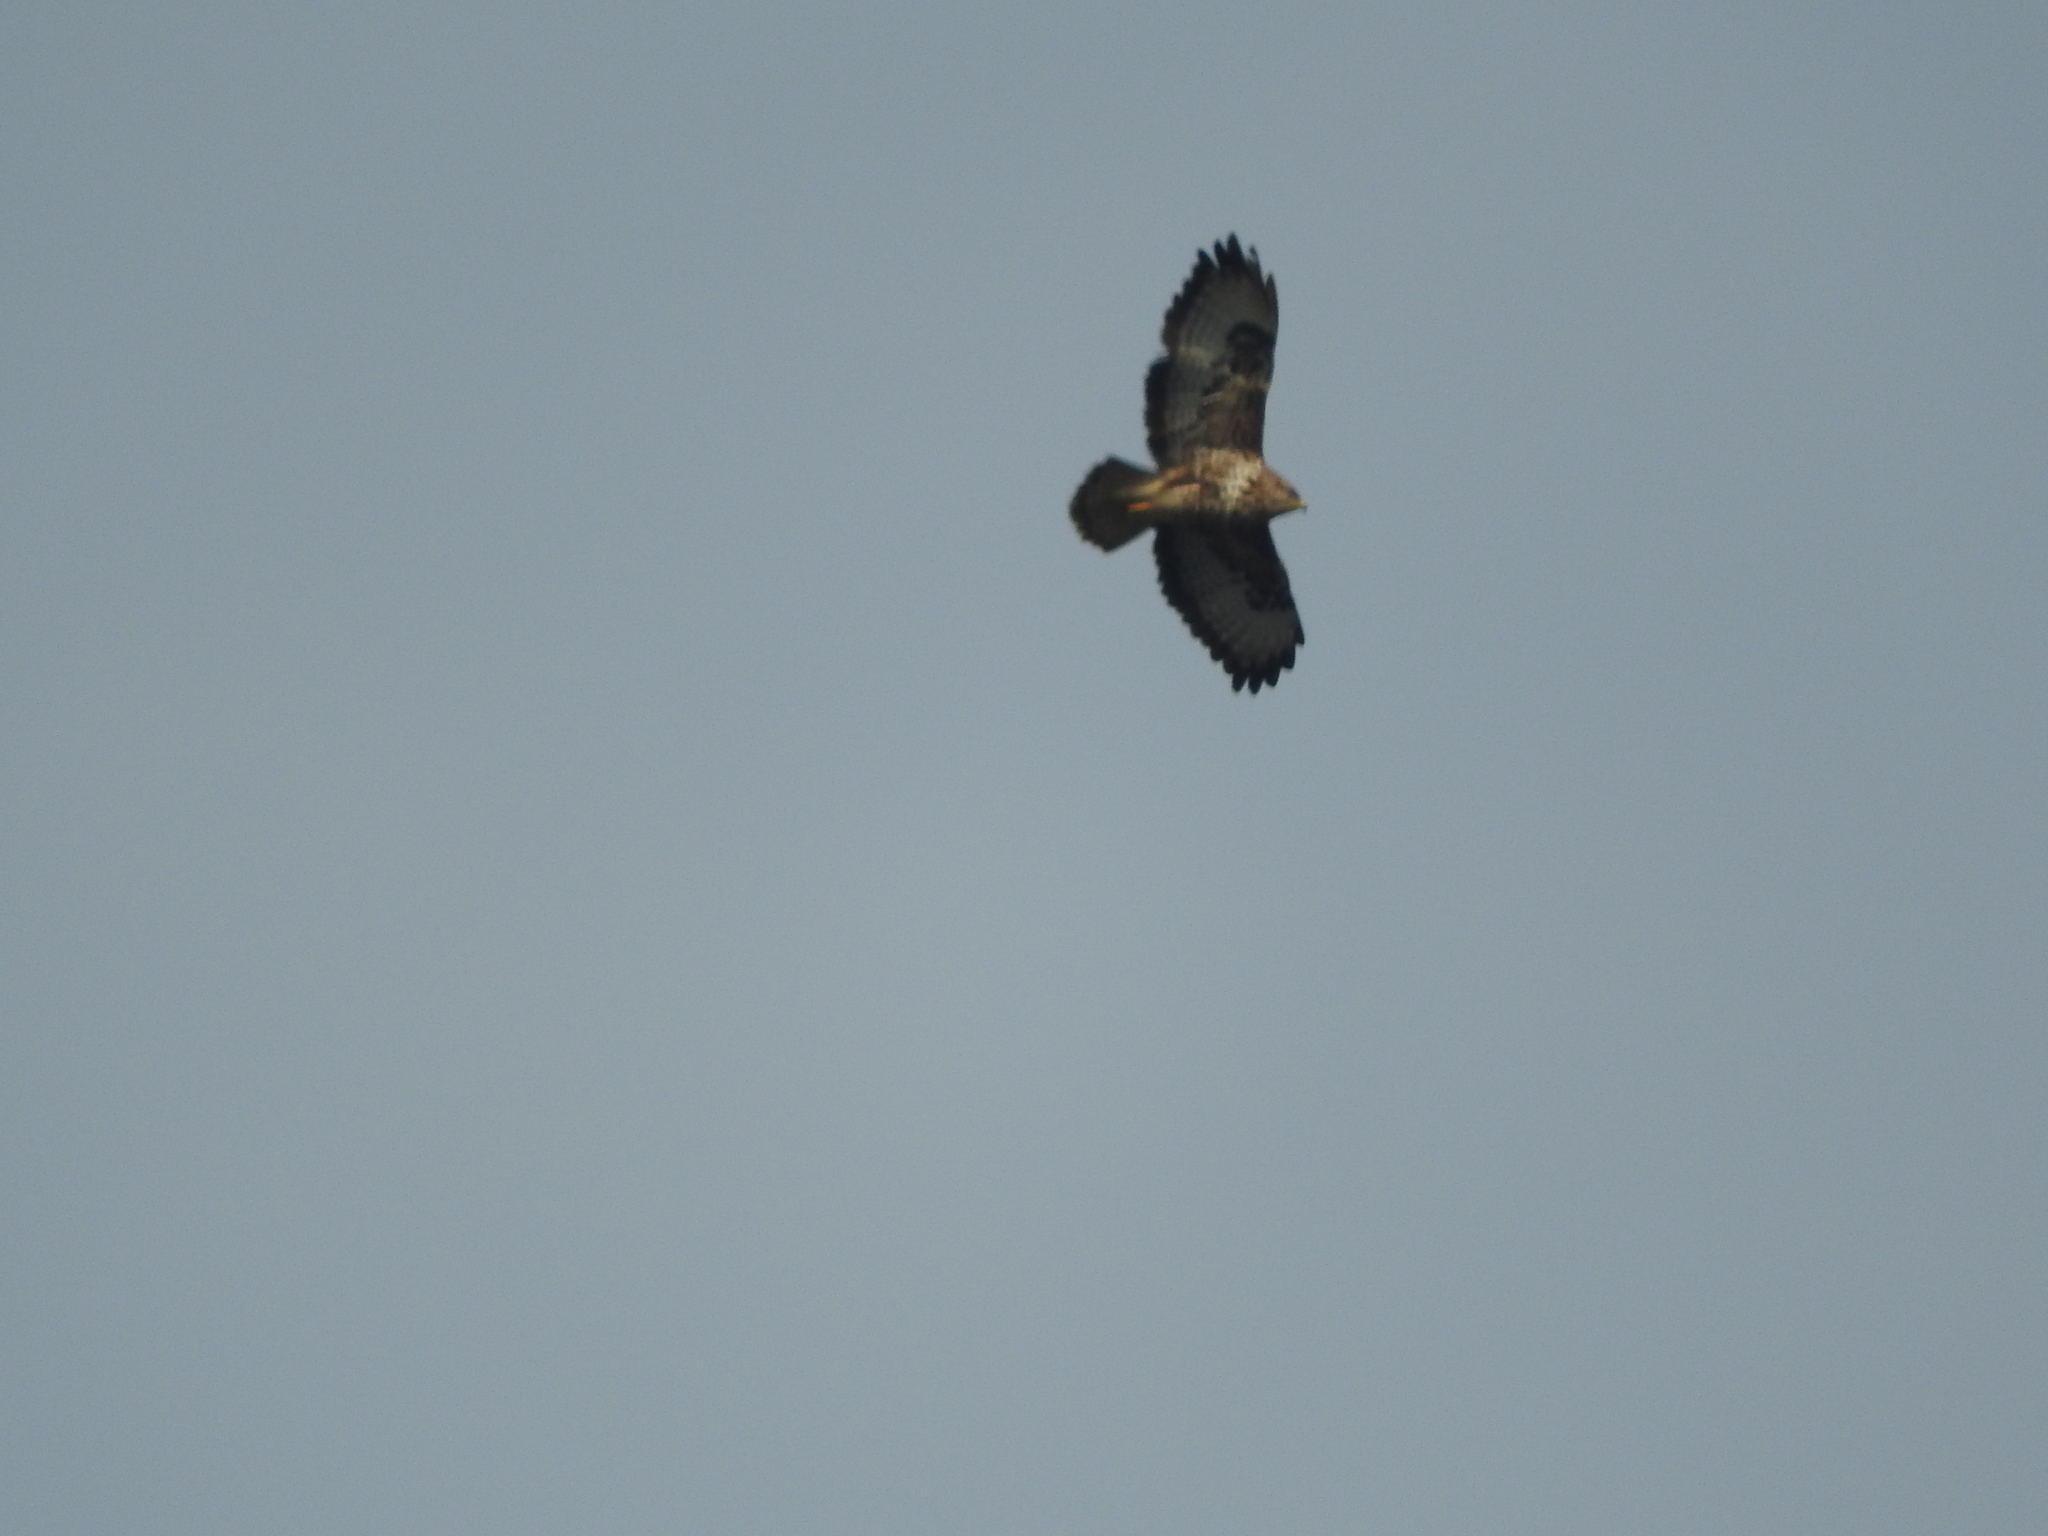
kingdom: Animalia
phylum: Chordata
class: Aves
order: Accipitriformes
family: Accipitridae
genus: Buteo
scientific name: Buteo buteo
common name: Common buzzard
